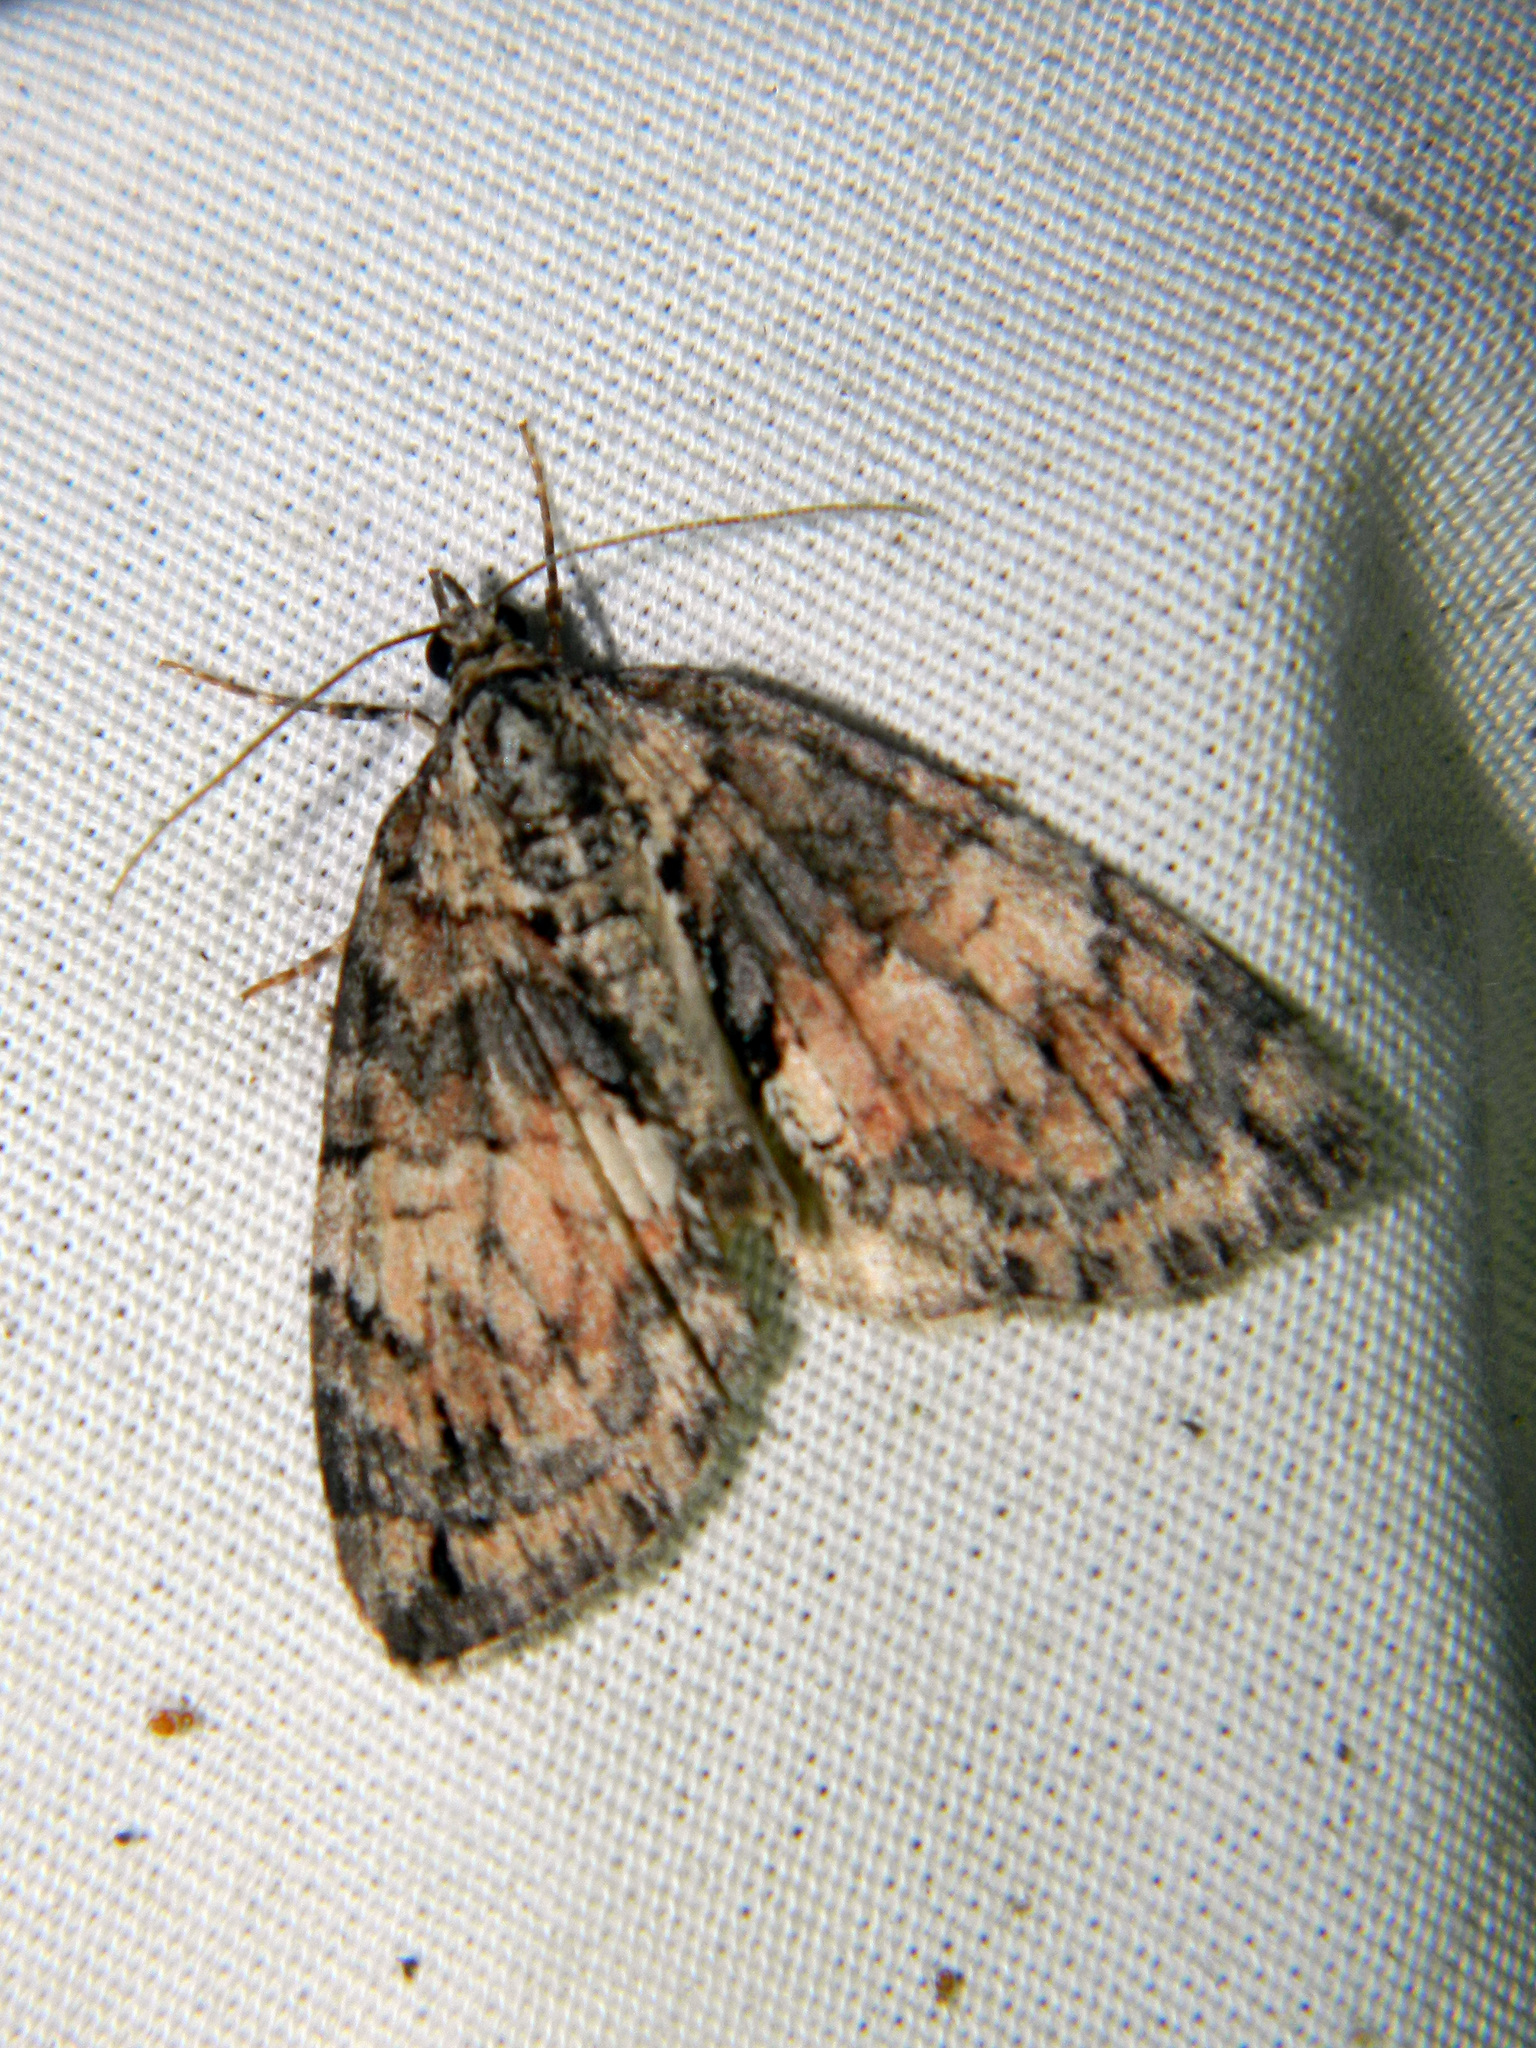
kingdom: Animalia
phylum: Arthropoda
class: Insecta
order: Lepidoptera
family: Geometridae
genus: Hydriomena
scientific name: Hydriomena perfracta
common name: Shattered hydriomena moth
